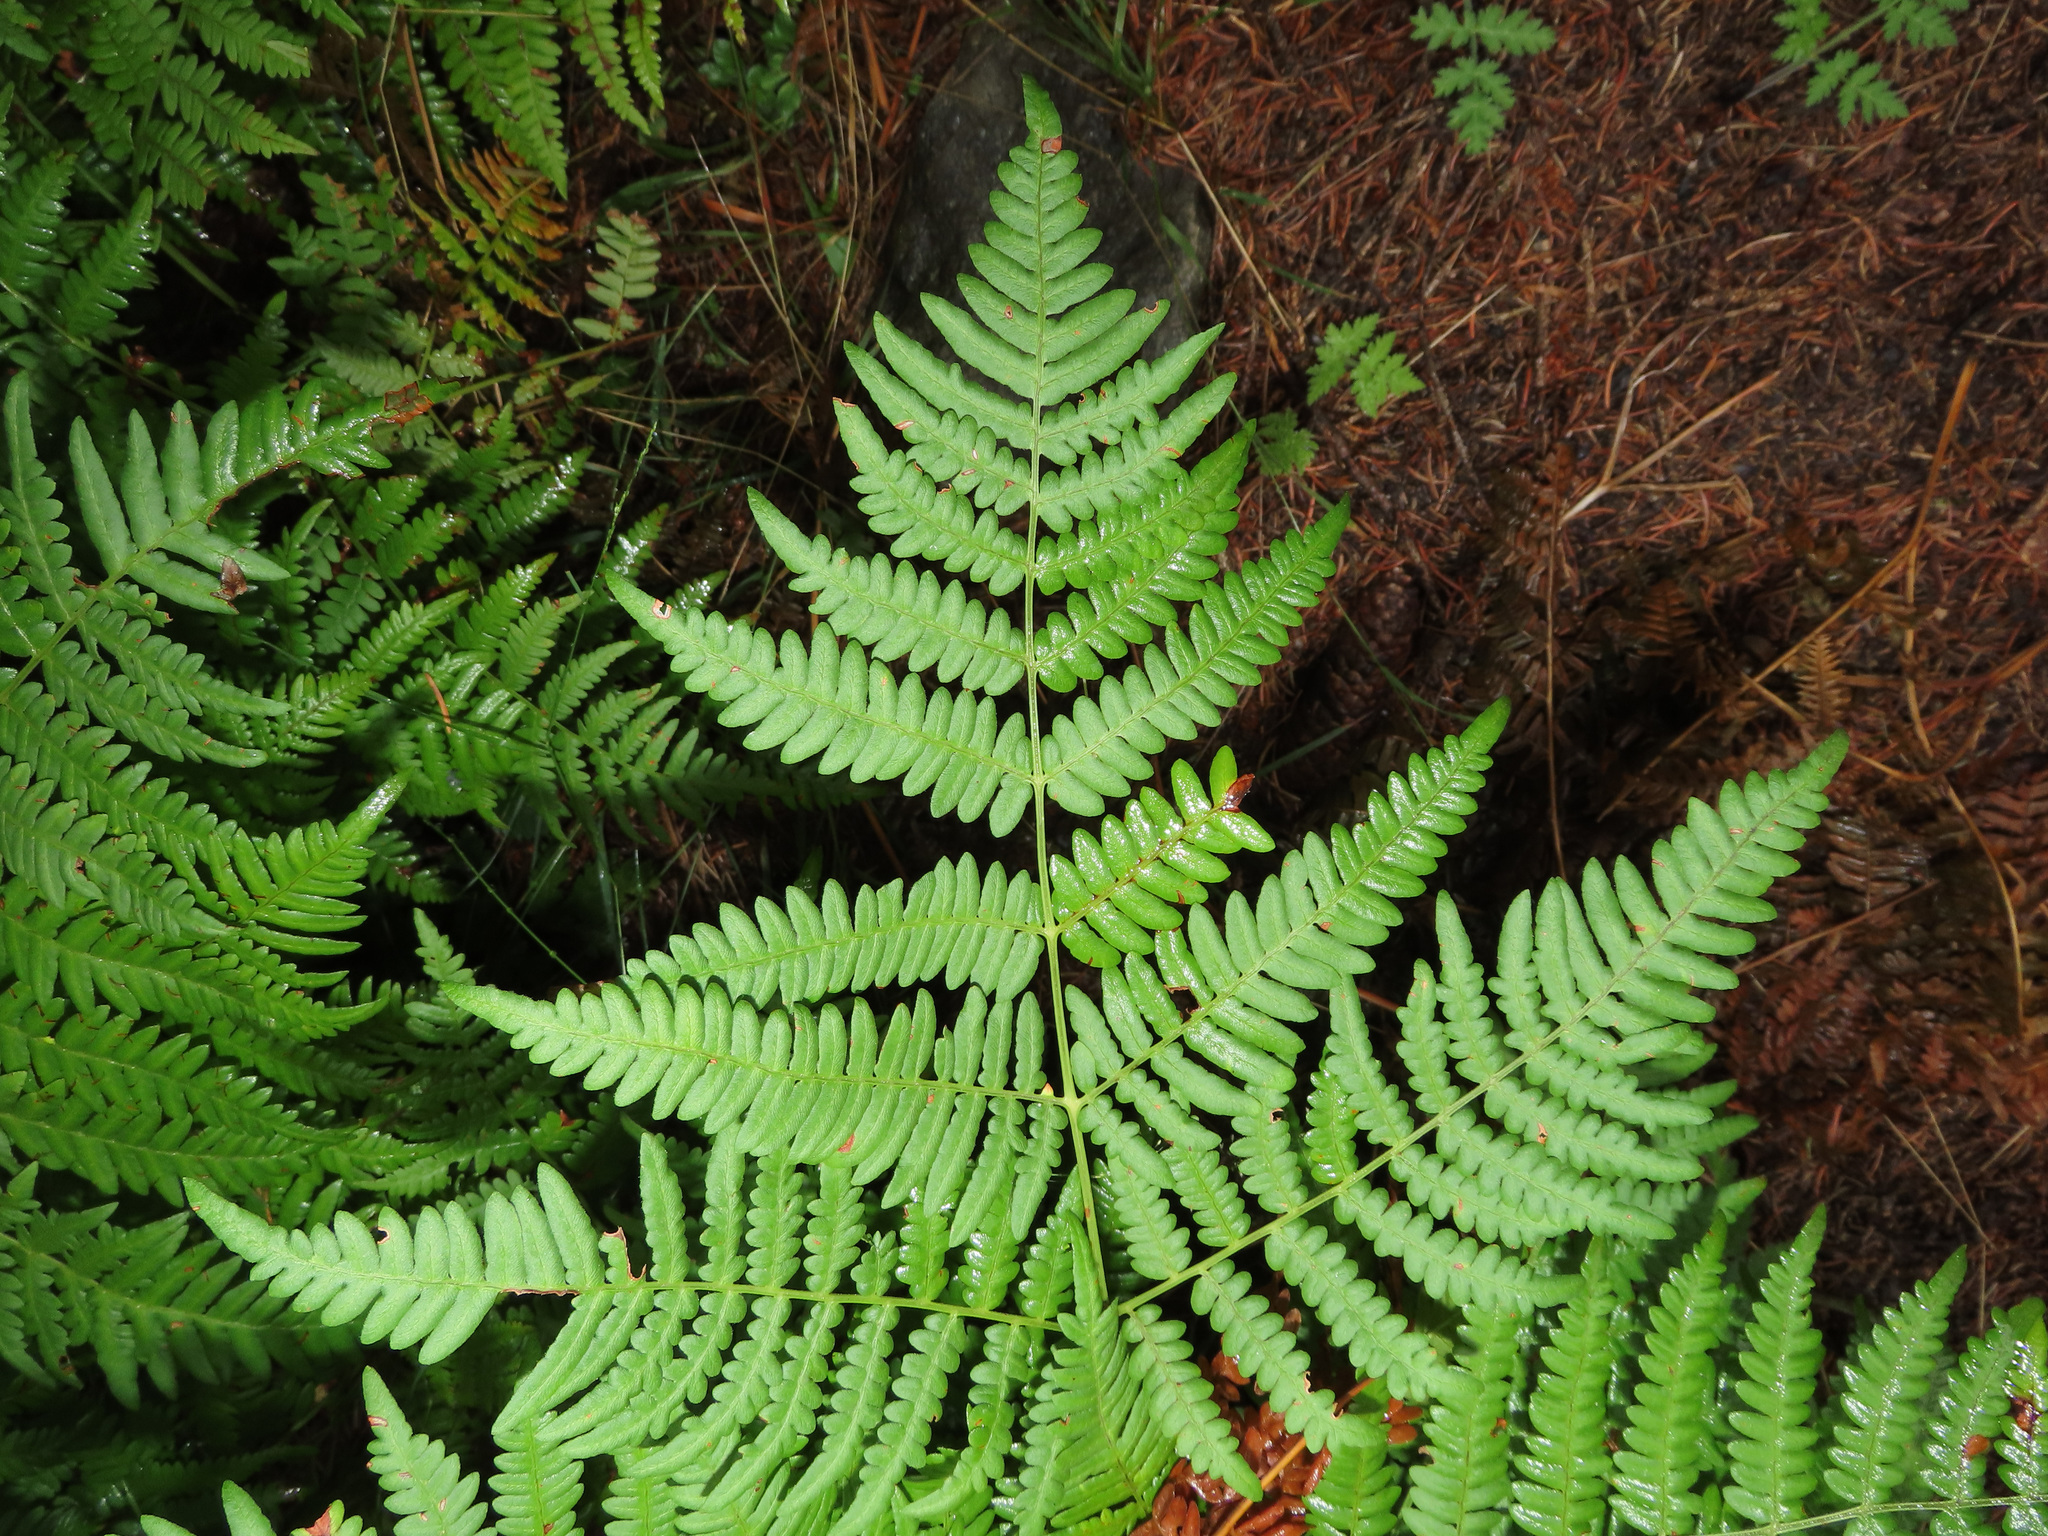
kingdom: Plantae
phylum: Tracheophyta
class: Polypodiopsida
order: Polypodiales
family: Dennstaedtiaceae
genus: Pteridium
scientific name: Pteridium aquilinum
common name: Bracken
